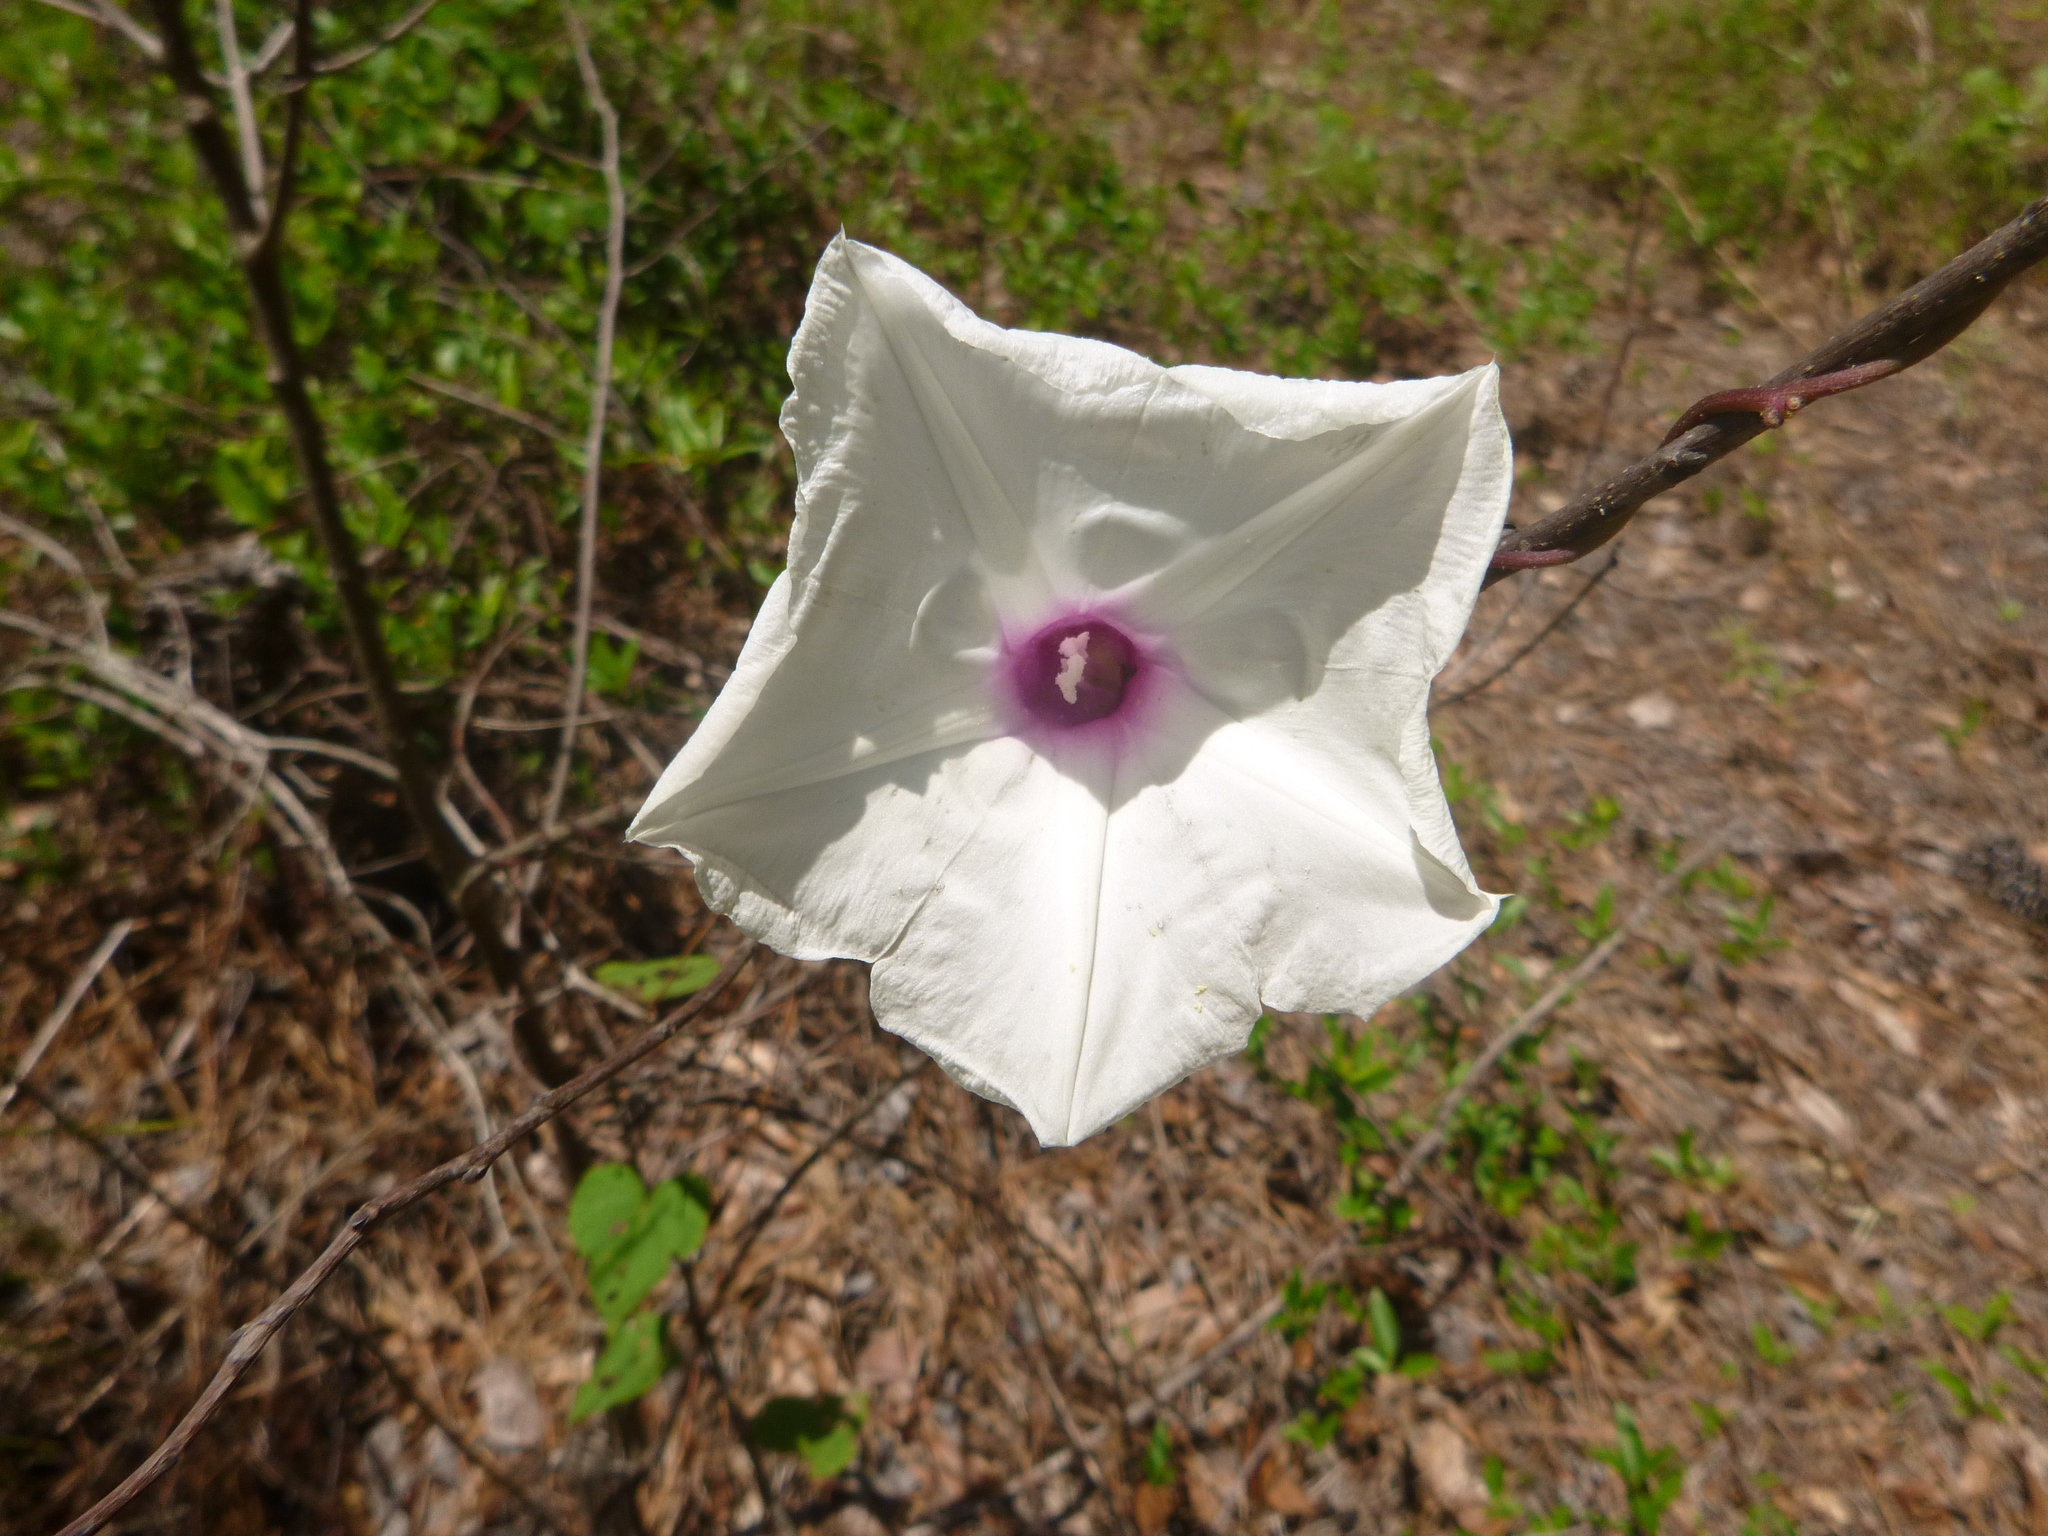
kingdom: Plantae
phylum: Tracheophyta
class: Magnoliopsida
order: Solanales
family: Convolvulaceae
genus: Ipomoea
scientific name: Ipomoea pandurata
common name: Man-of-the-earth
